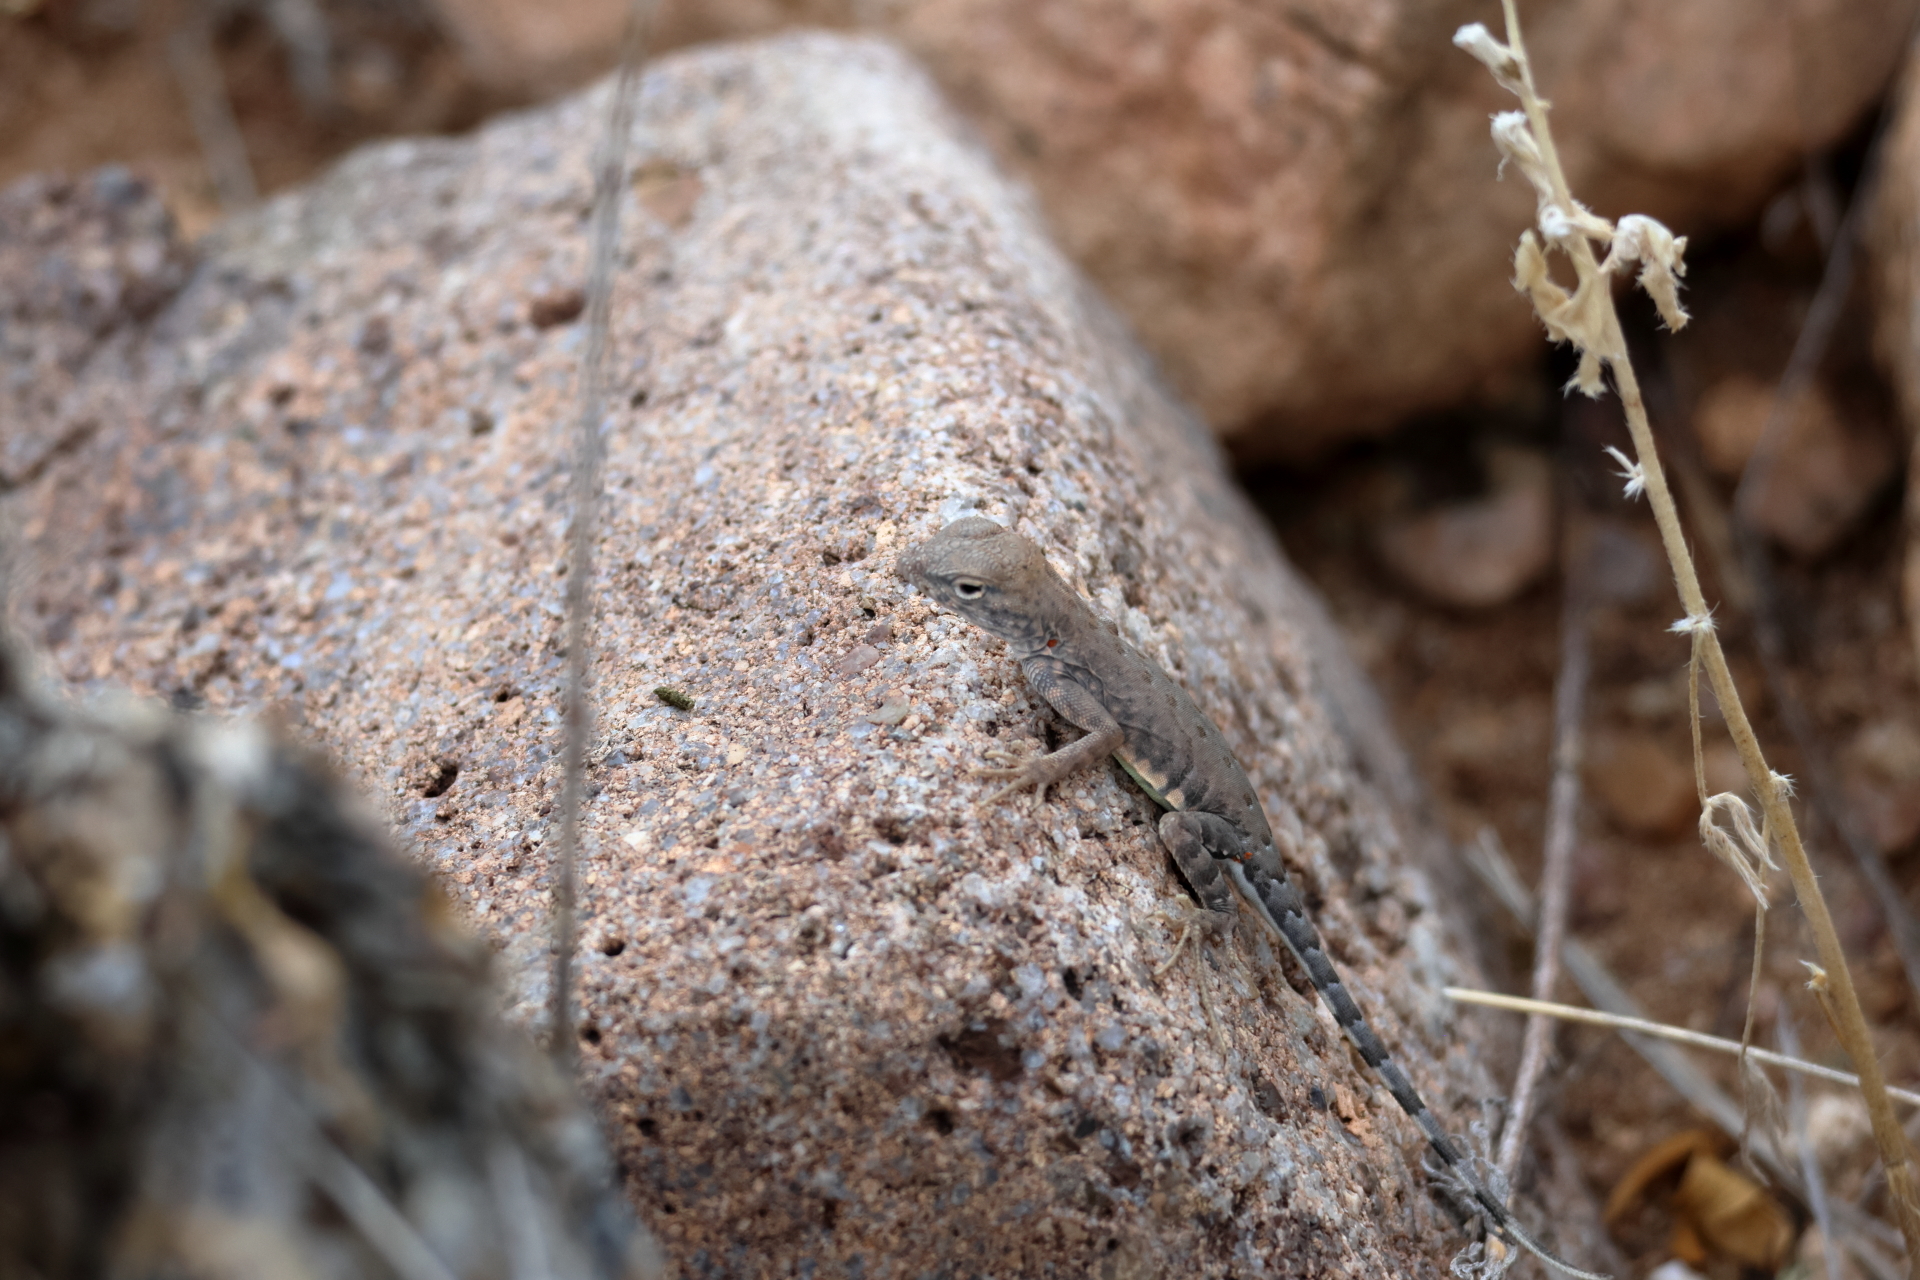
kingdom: Animalia
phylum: Chordata
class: Squamata
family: Phrynosomatidae
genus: Cophosaurus
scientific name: Cophosaurus texanus
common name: Greater earless lizard
